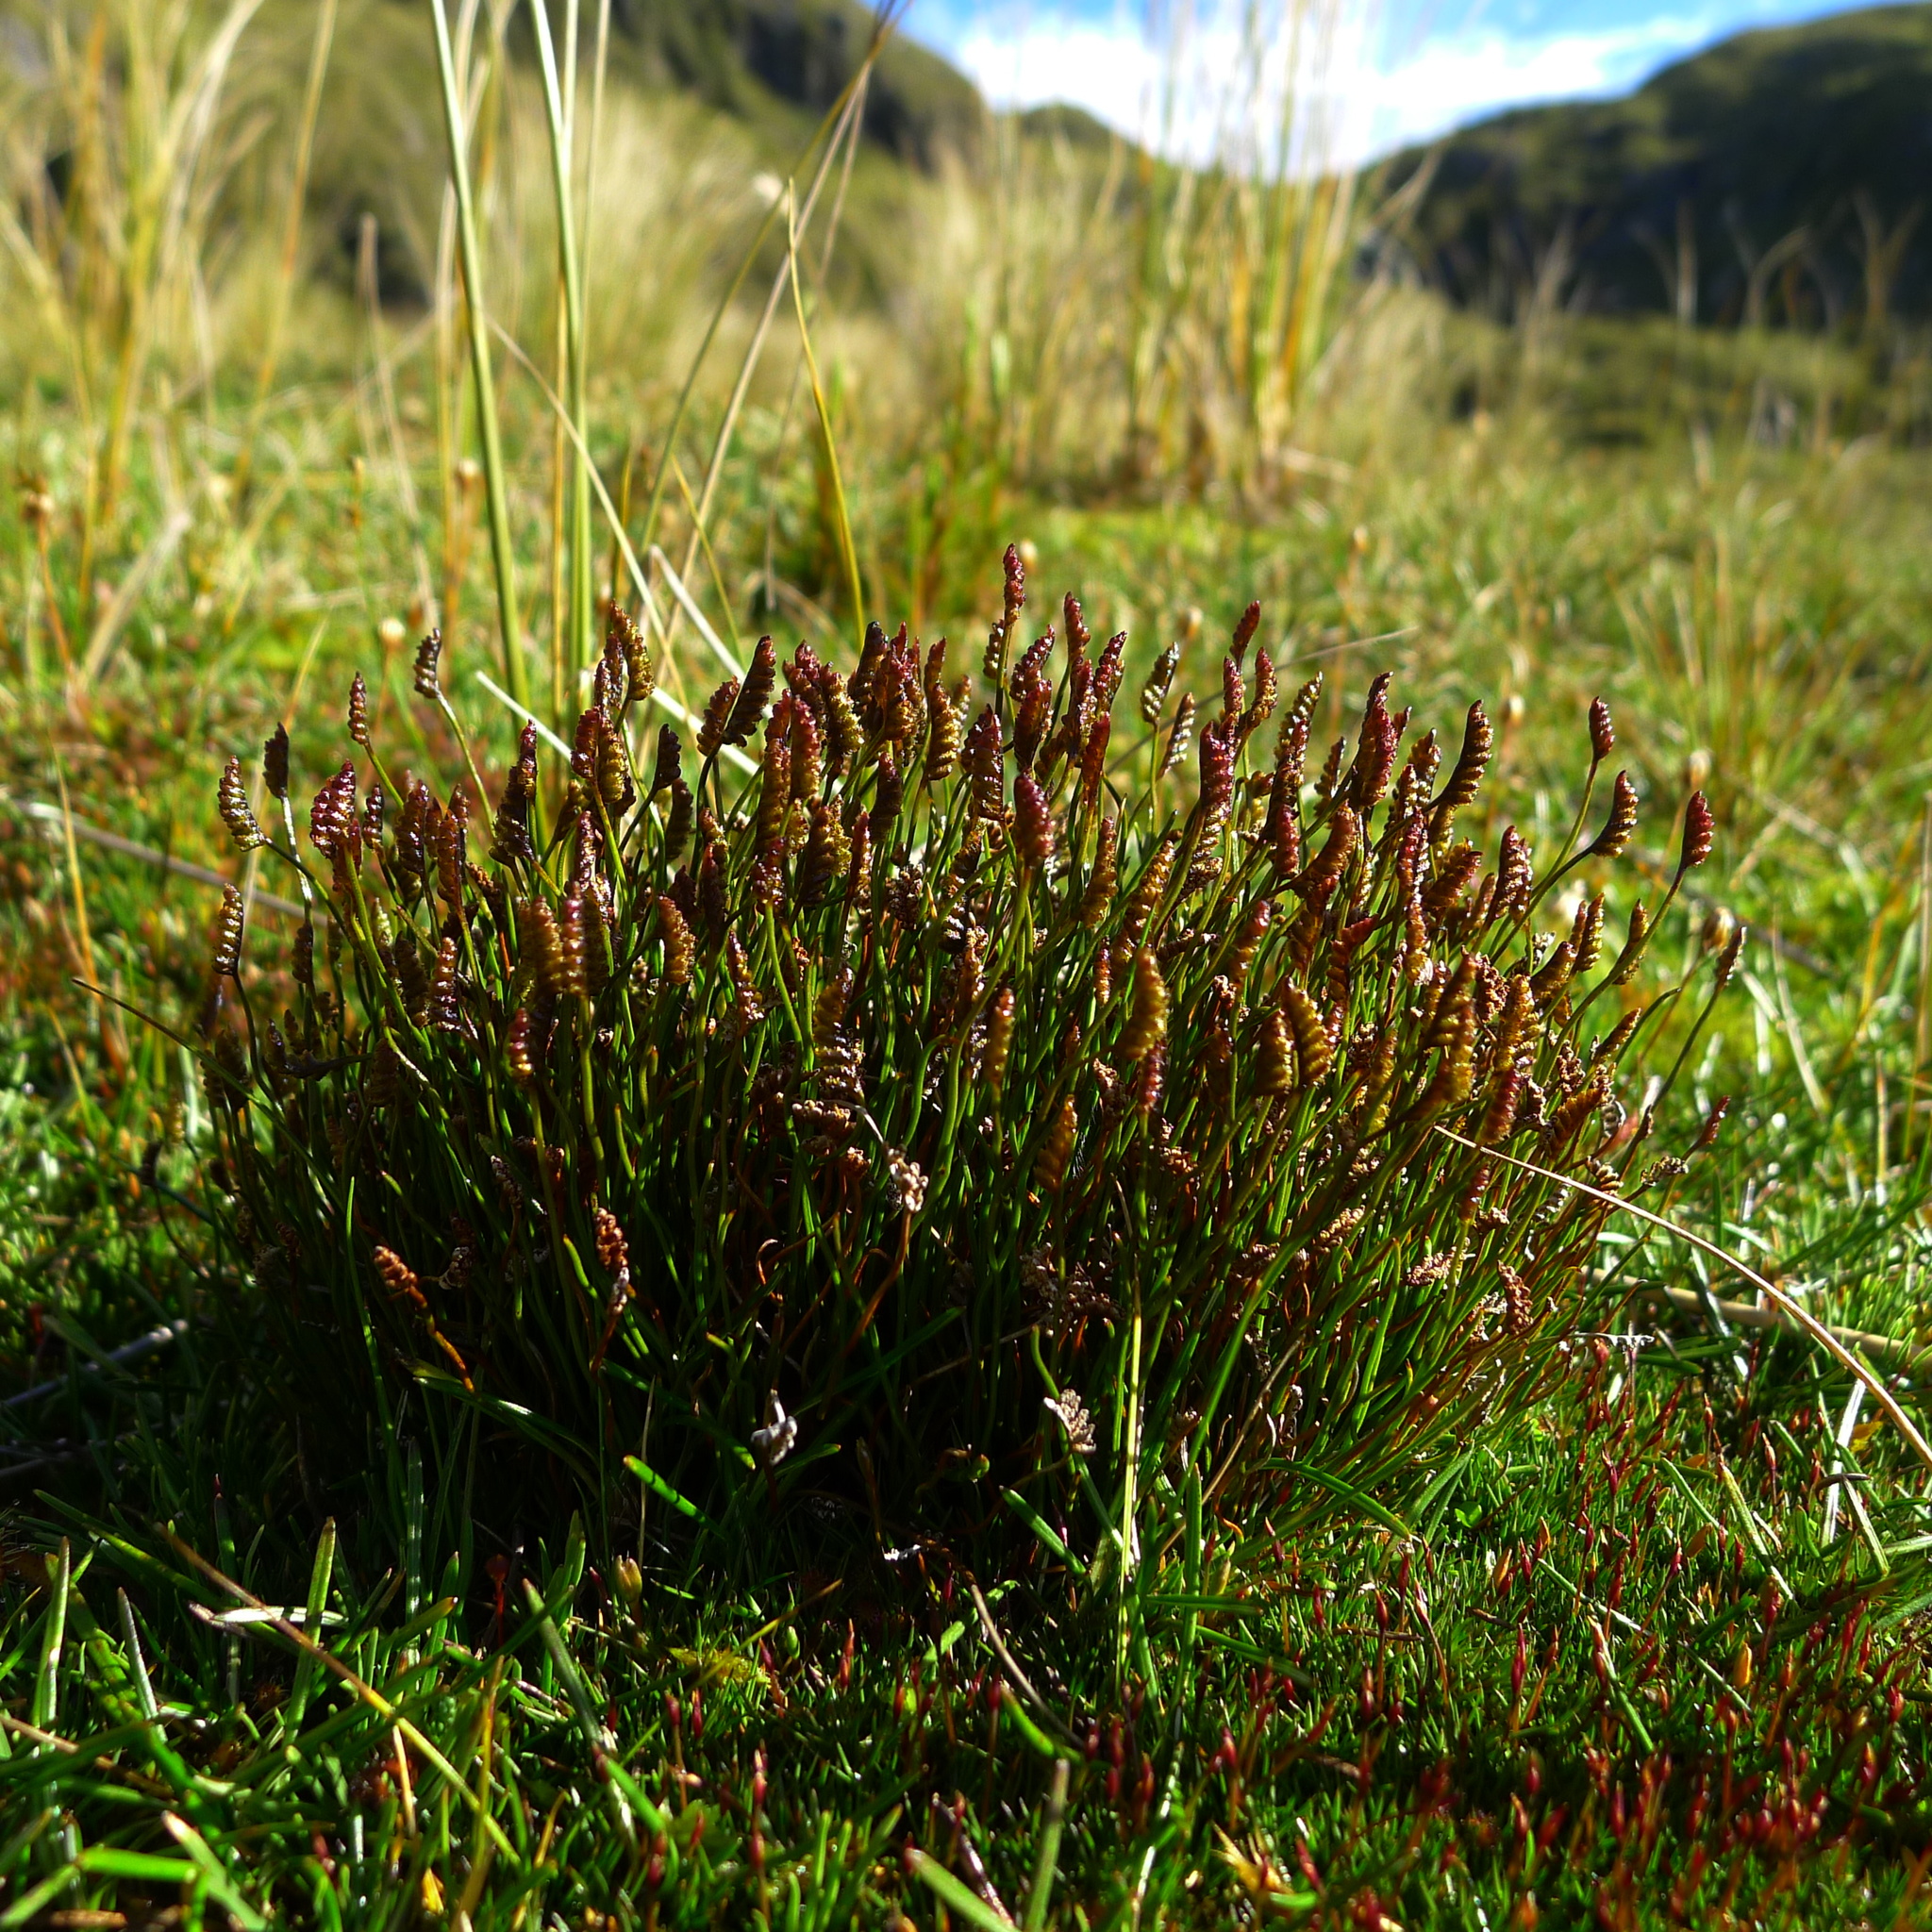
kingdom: Plantae
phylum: Tracheophyta
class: Polypodiopsida
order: Schizaeales
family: Schizaeaceae
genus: Microschizaea
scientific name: Microschizaea australis
